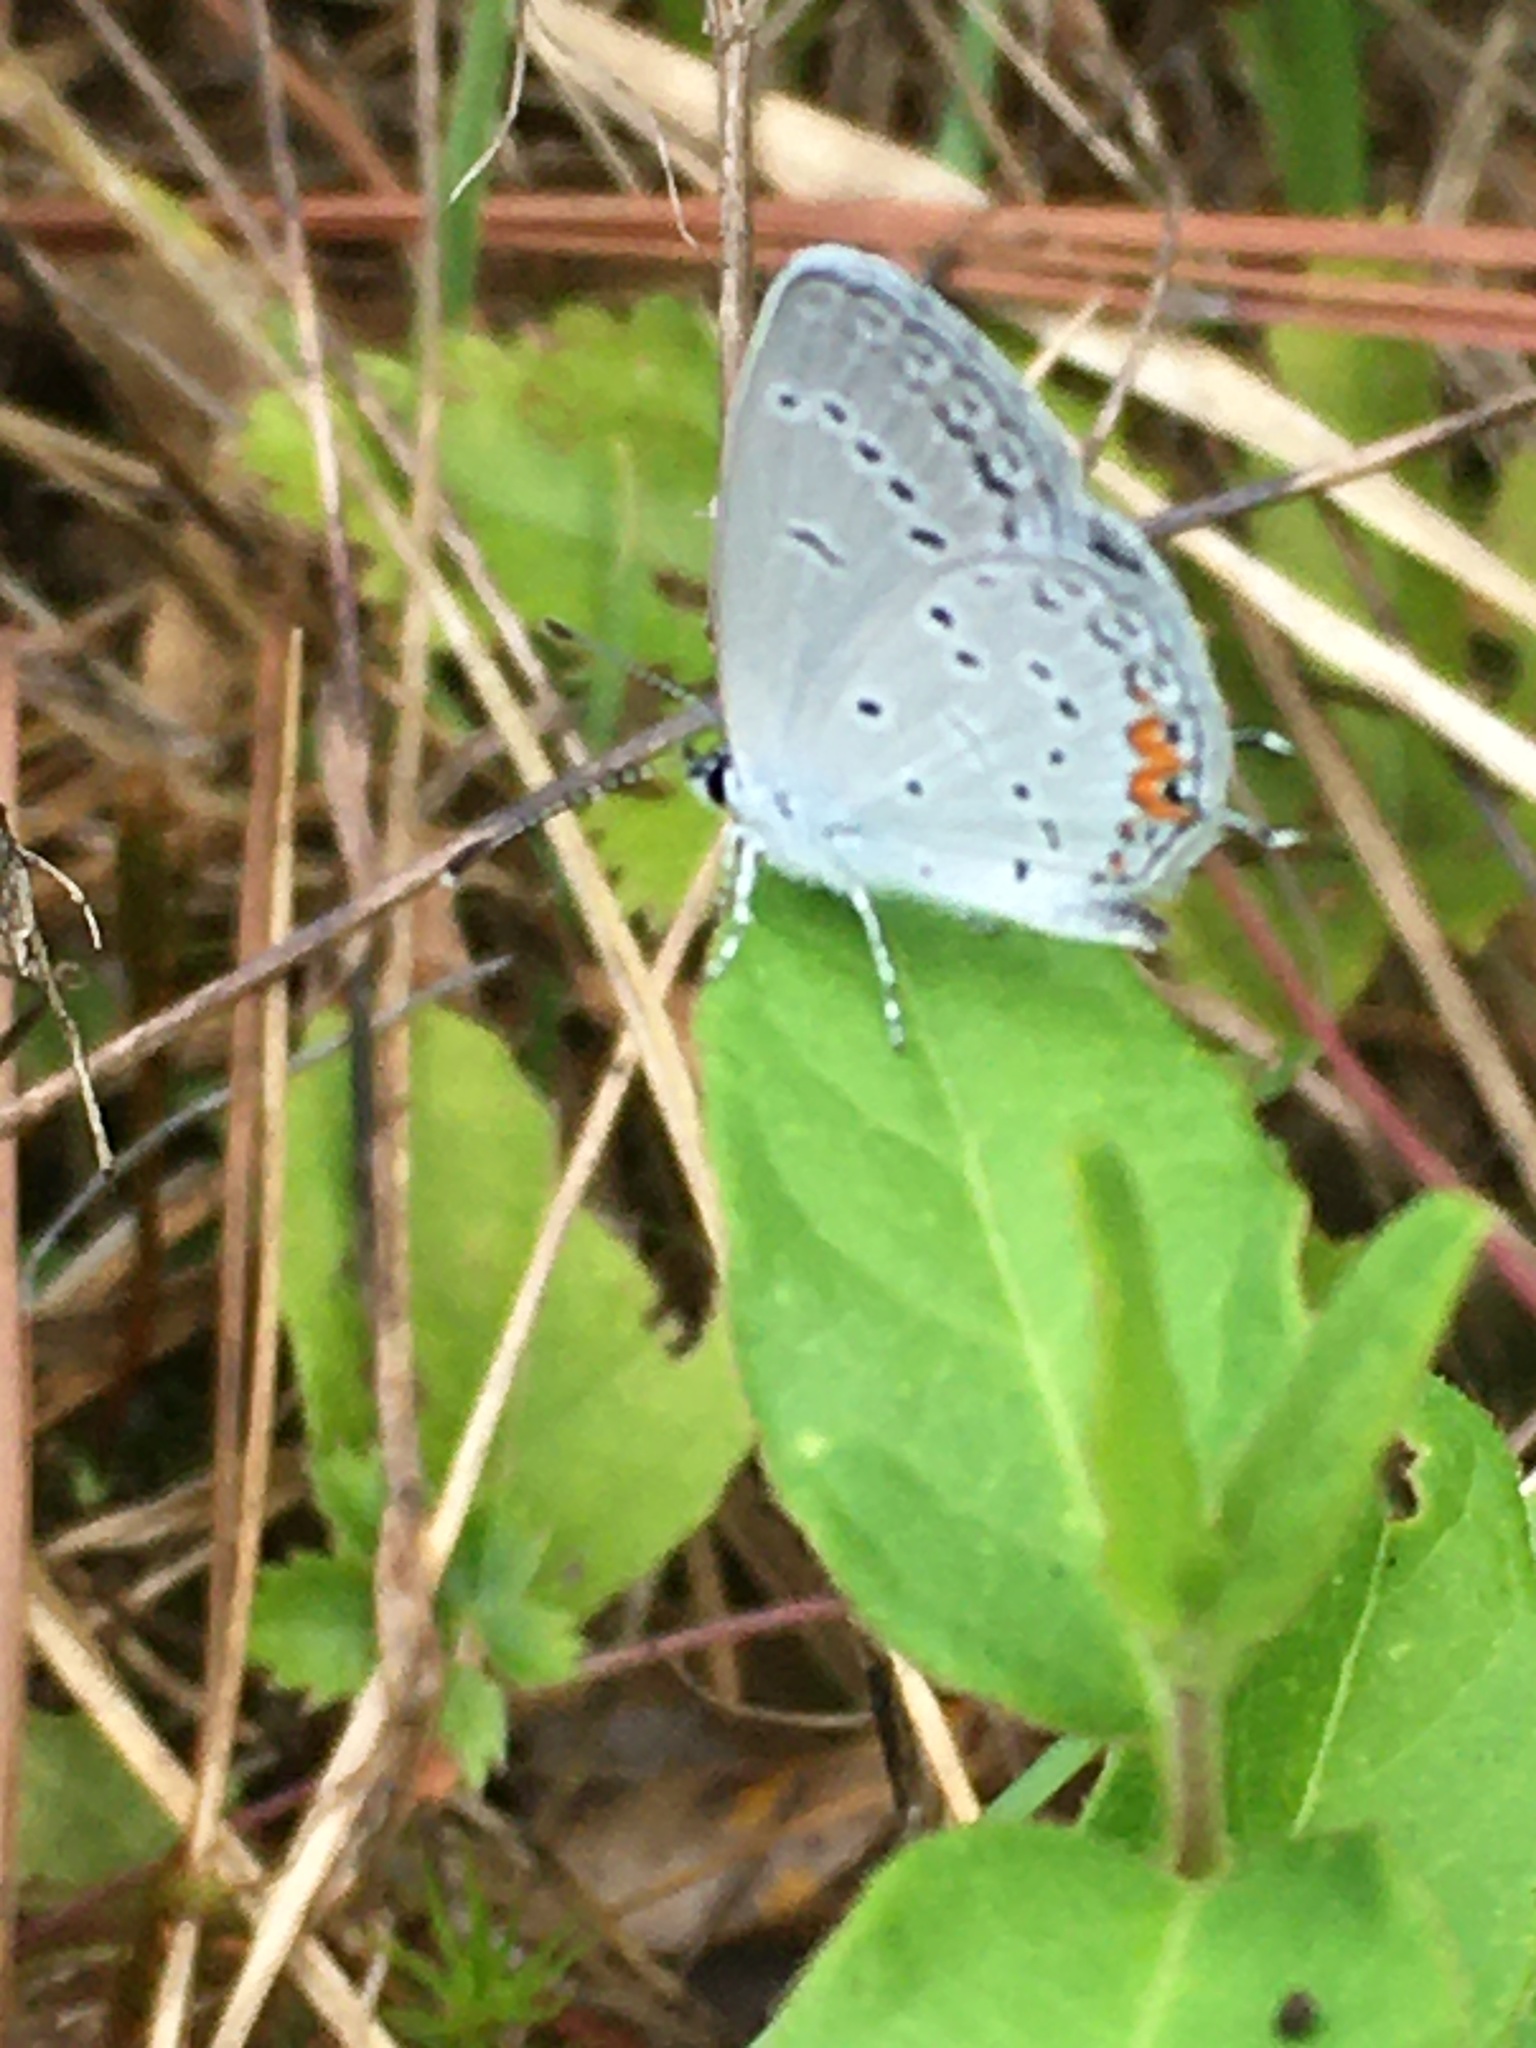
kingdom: Animalia
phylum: Arthropoda
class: Insecta
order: Lepidoptera
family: Lycaenidae
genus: Elkalyce
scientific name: Elkalyce comyntas
